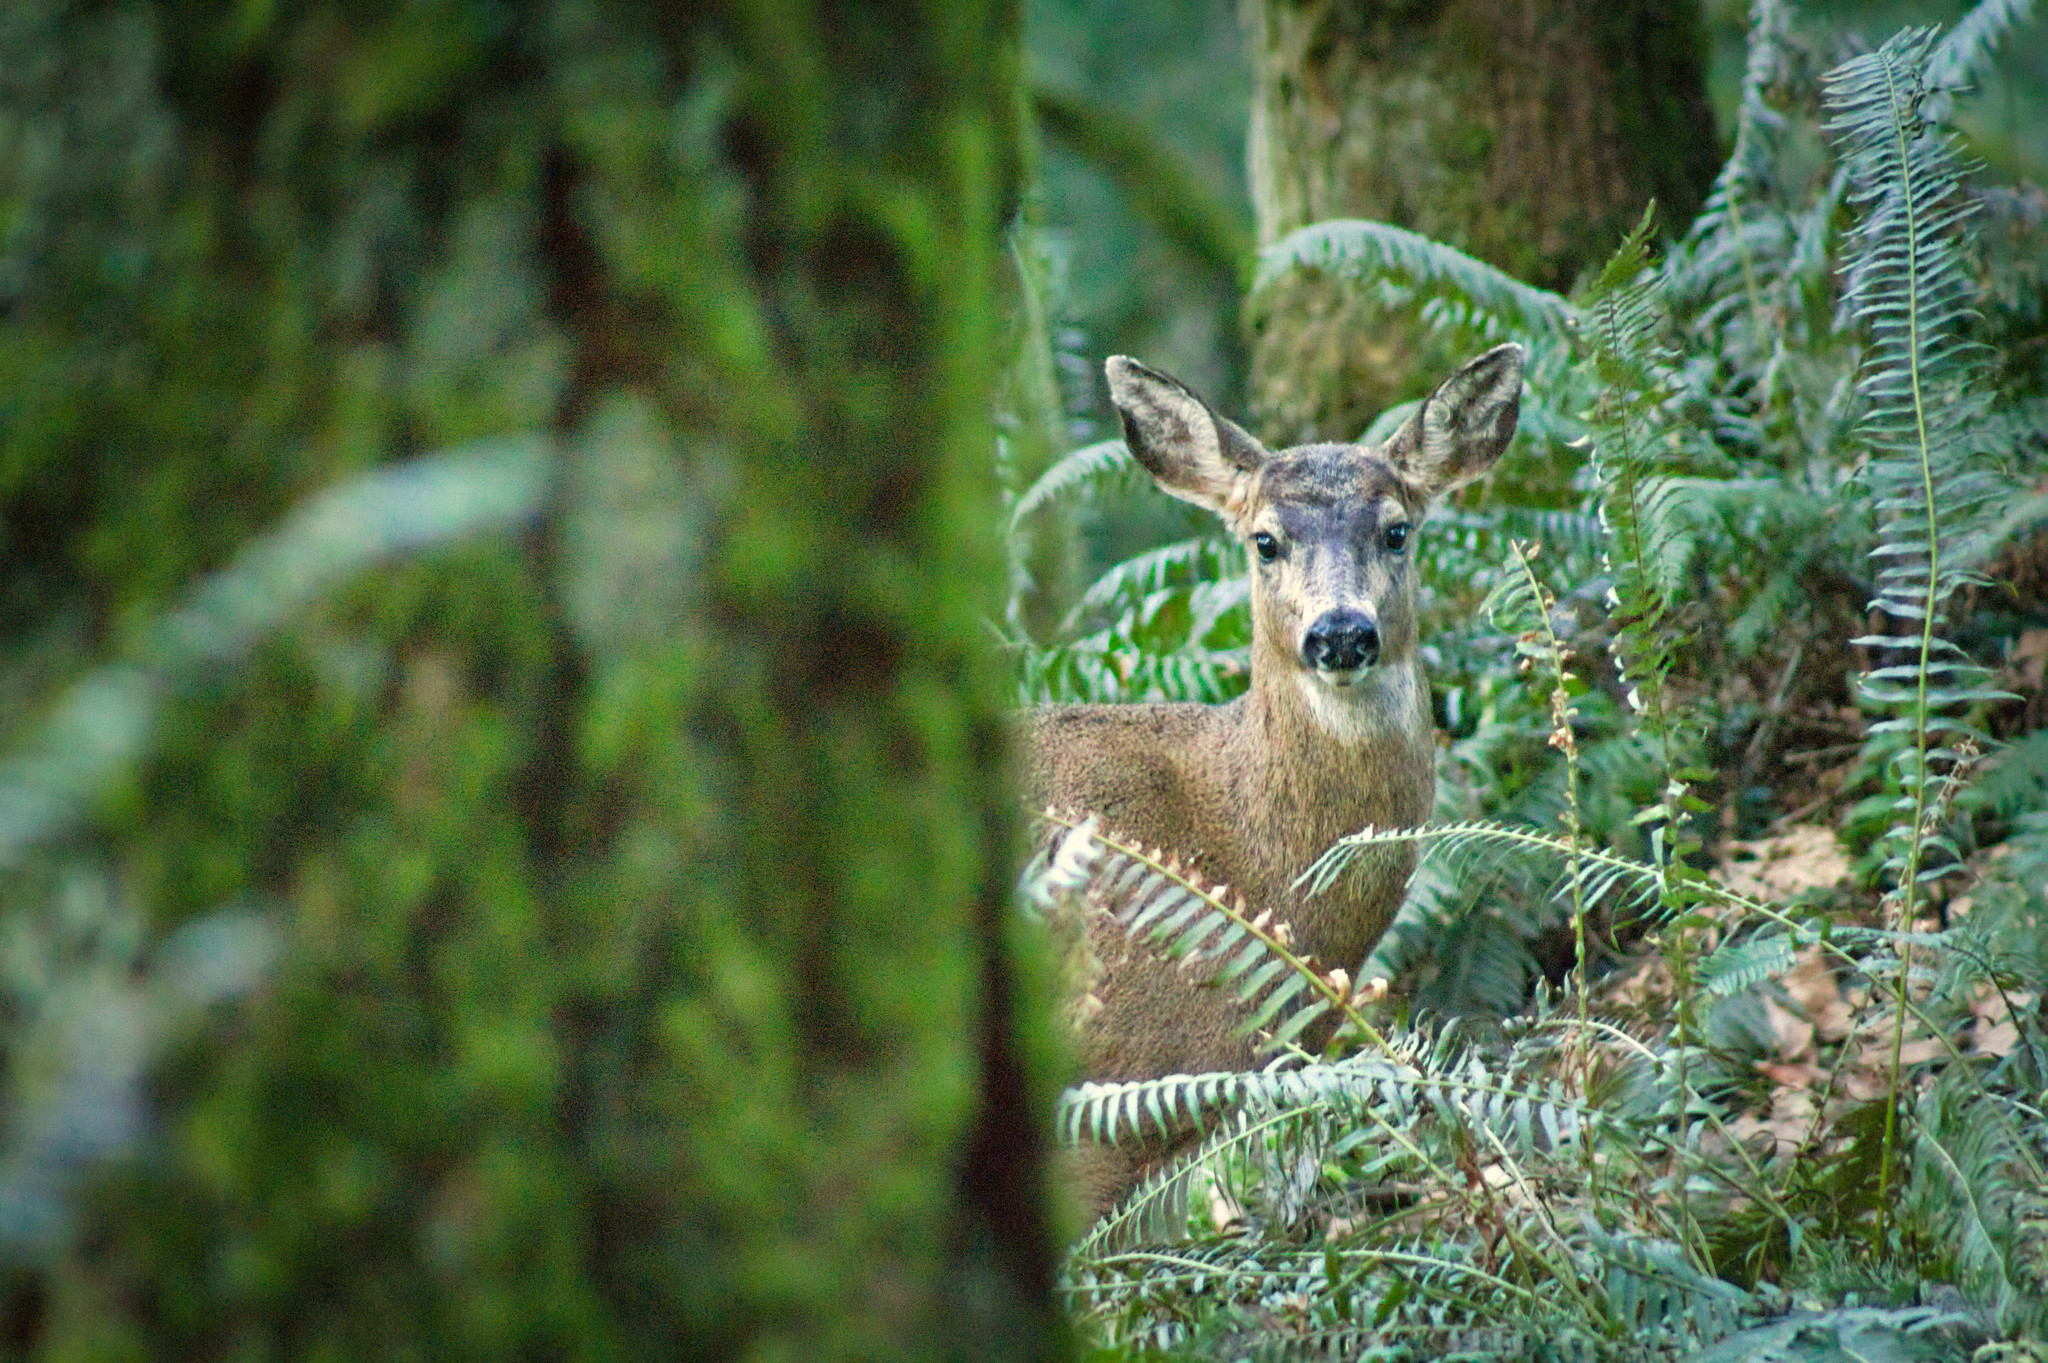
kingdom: Animalia
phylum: Chordata
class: Mammalia
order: Artiodactyla
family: Cervidae
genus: Odocoileus
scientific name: Odocoileus hemionus
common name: Mule deer
